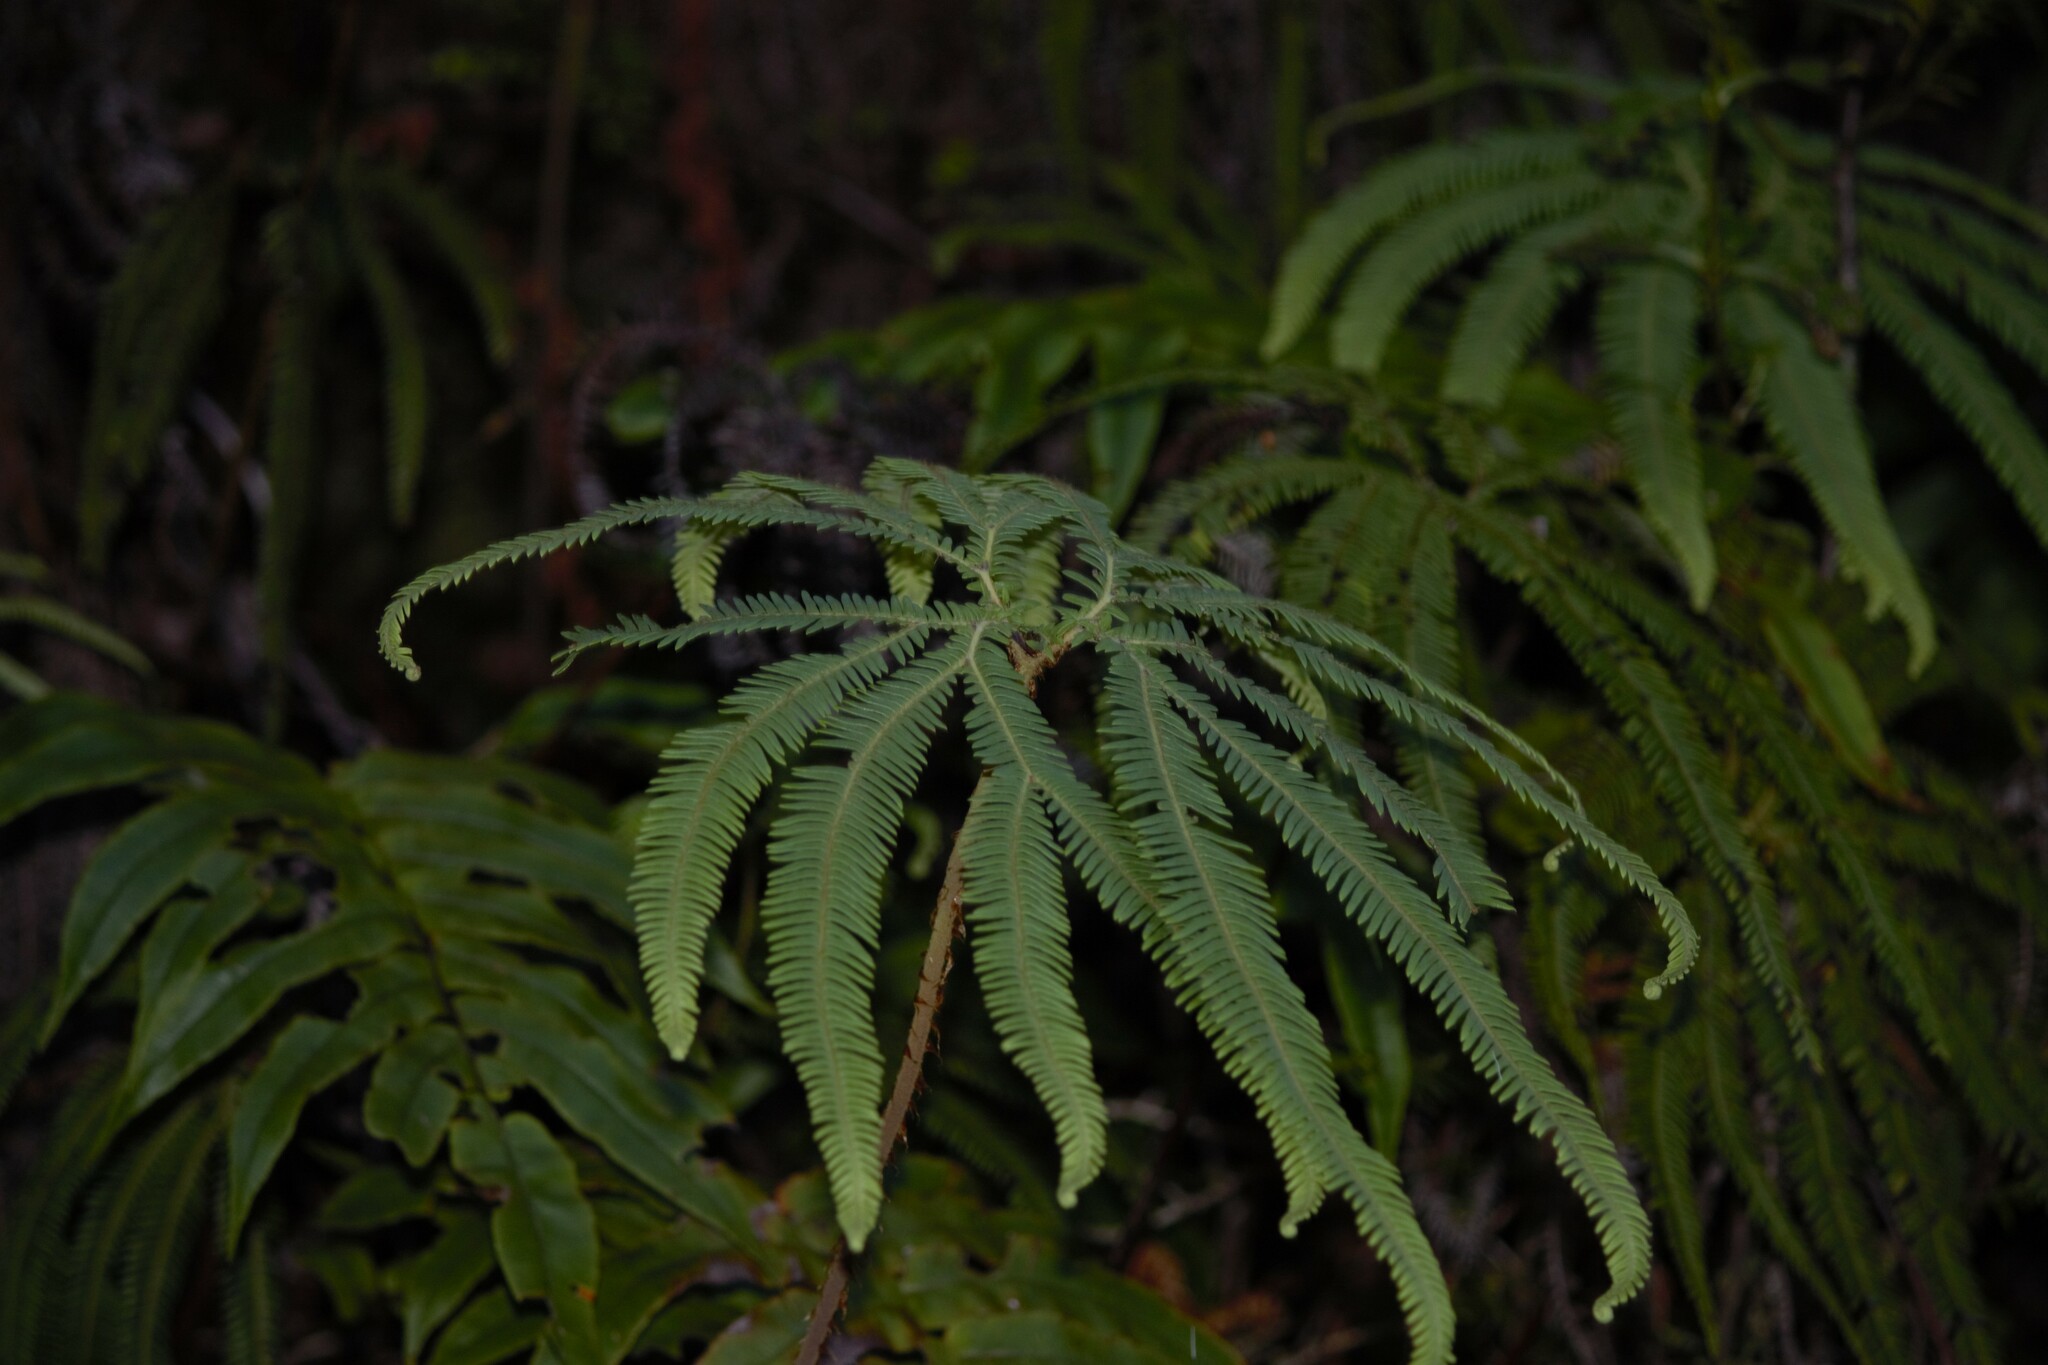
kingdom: Plantae
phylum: Tracheophyta
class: Polypodiopsida
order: Gleicheniales
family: Gleicheniaceae
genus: Sticherus
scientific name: Sticherus cunninghamii
